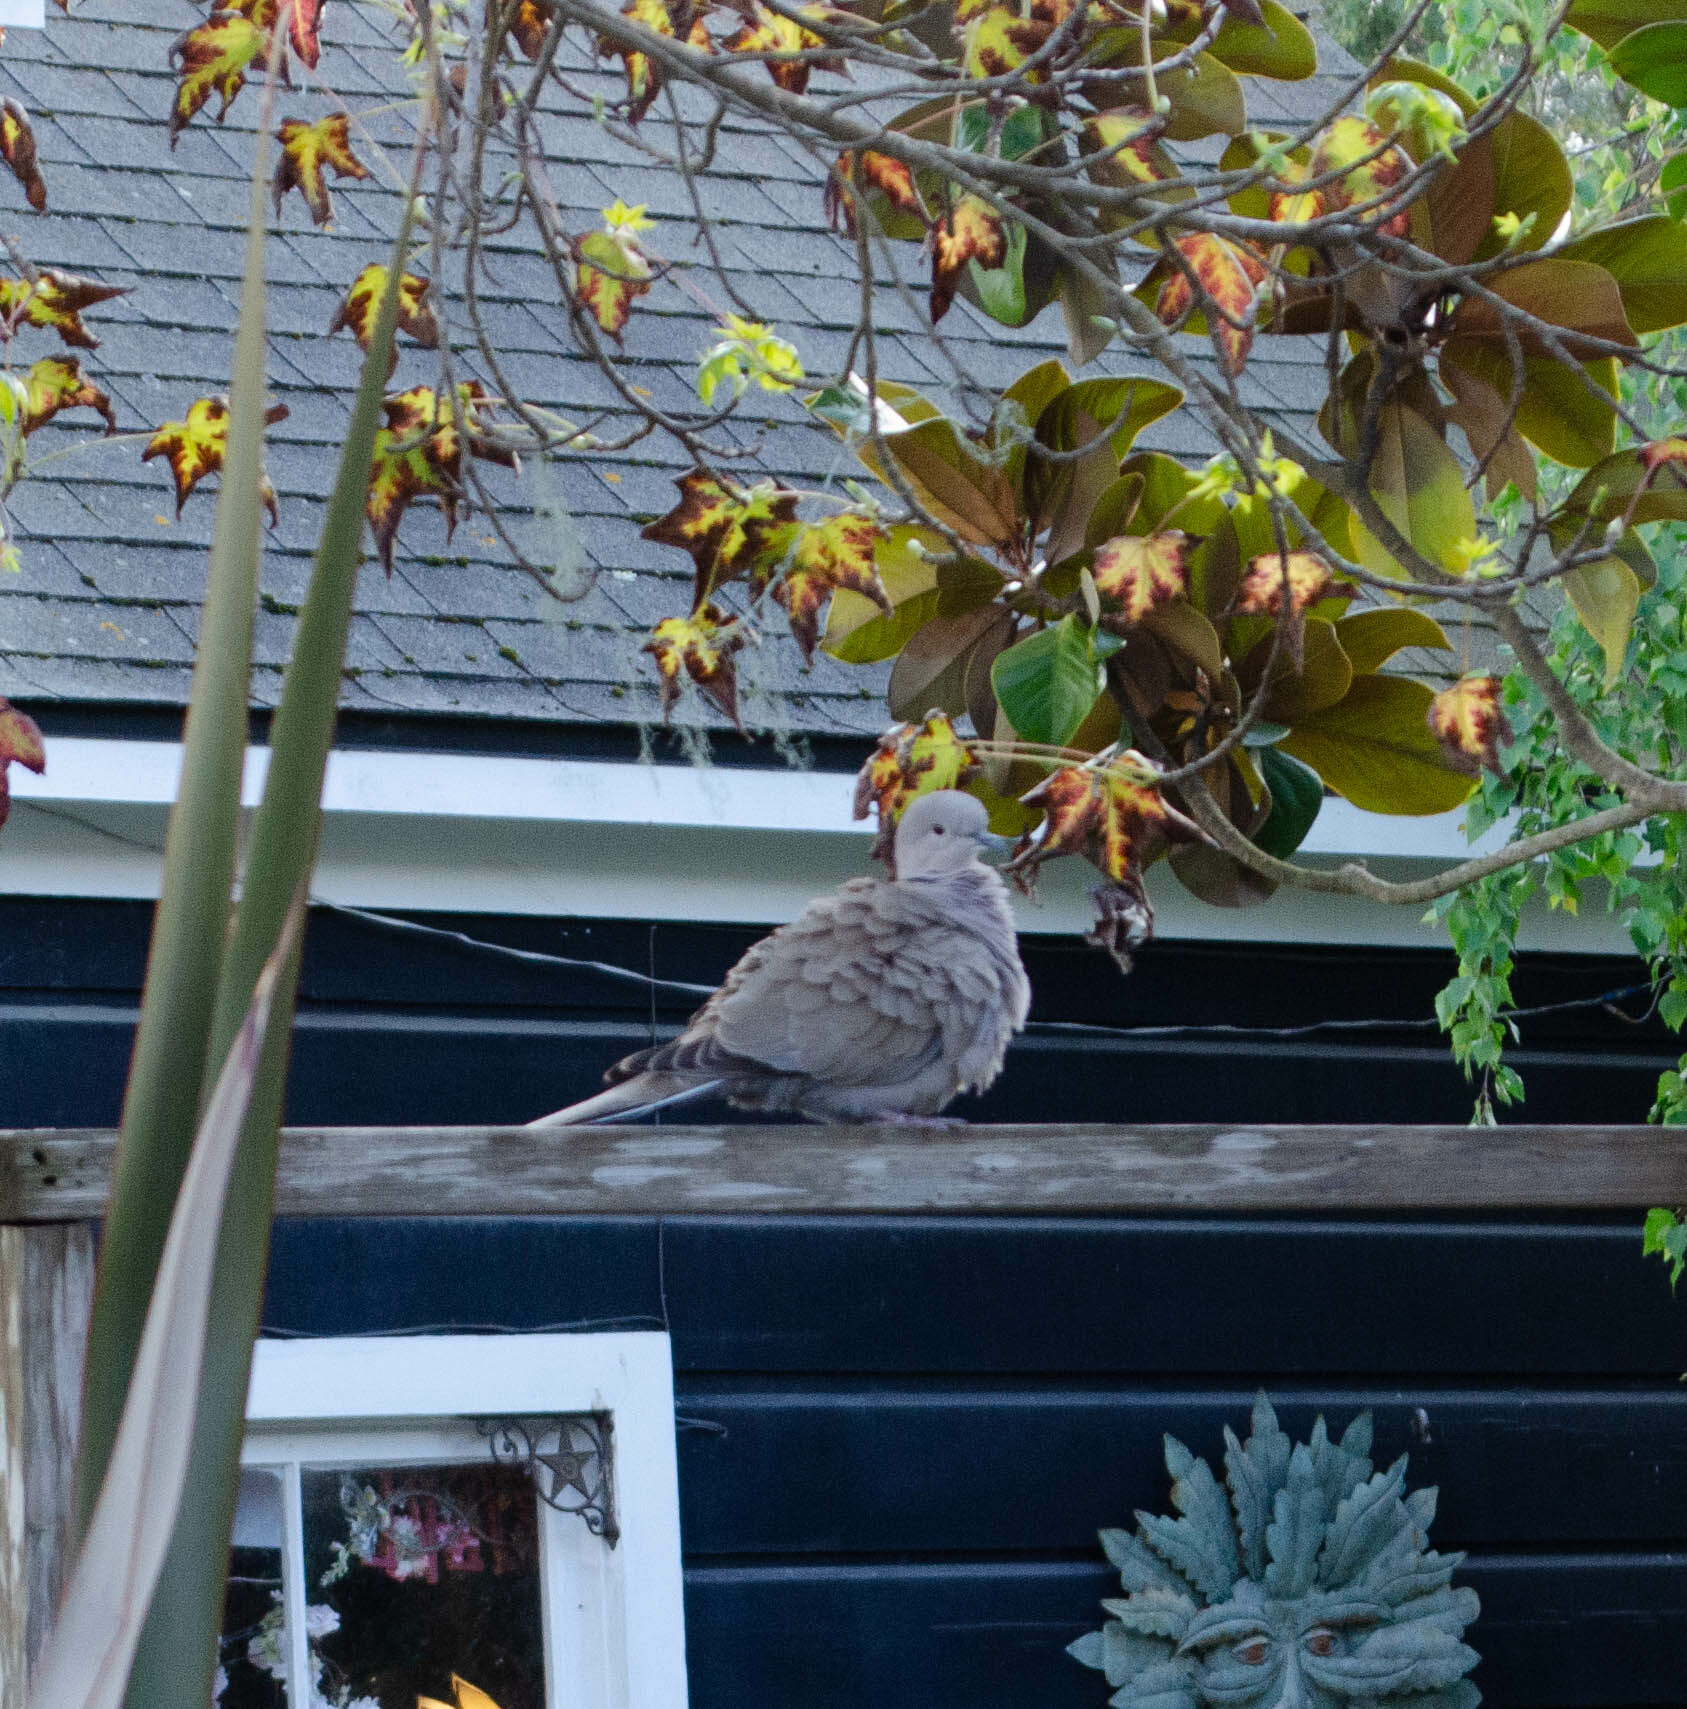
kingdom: Animalia
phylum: Chordata
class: Aves
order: Columbiformes
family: Columbidae
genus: Streptopelia
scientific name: Streptopelia decaocto
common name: Eurasian collared dove
